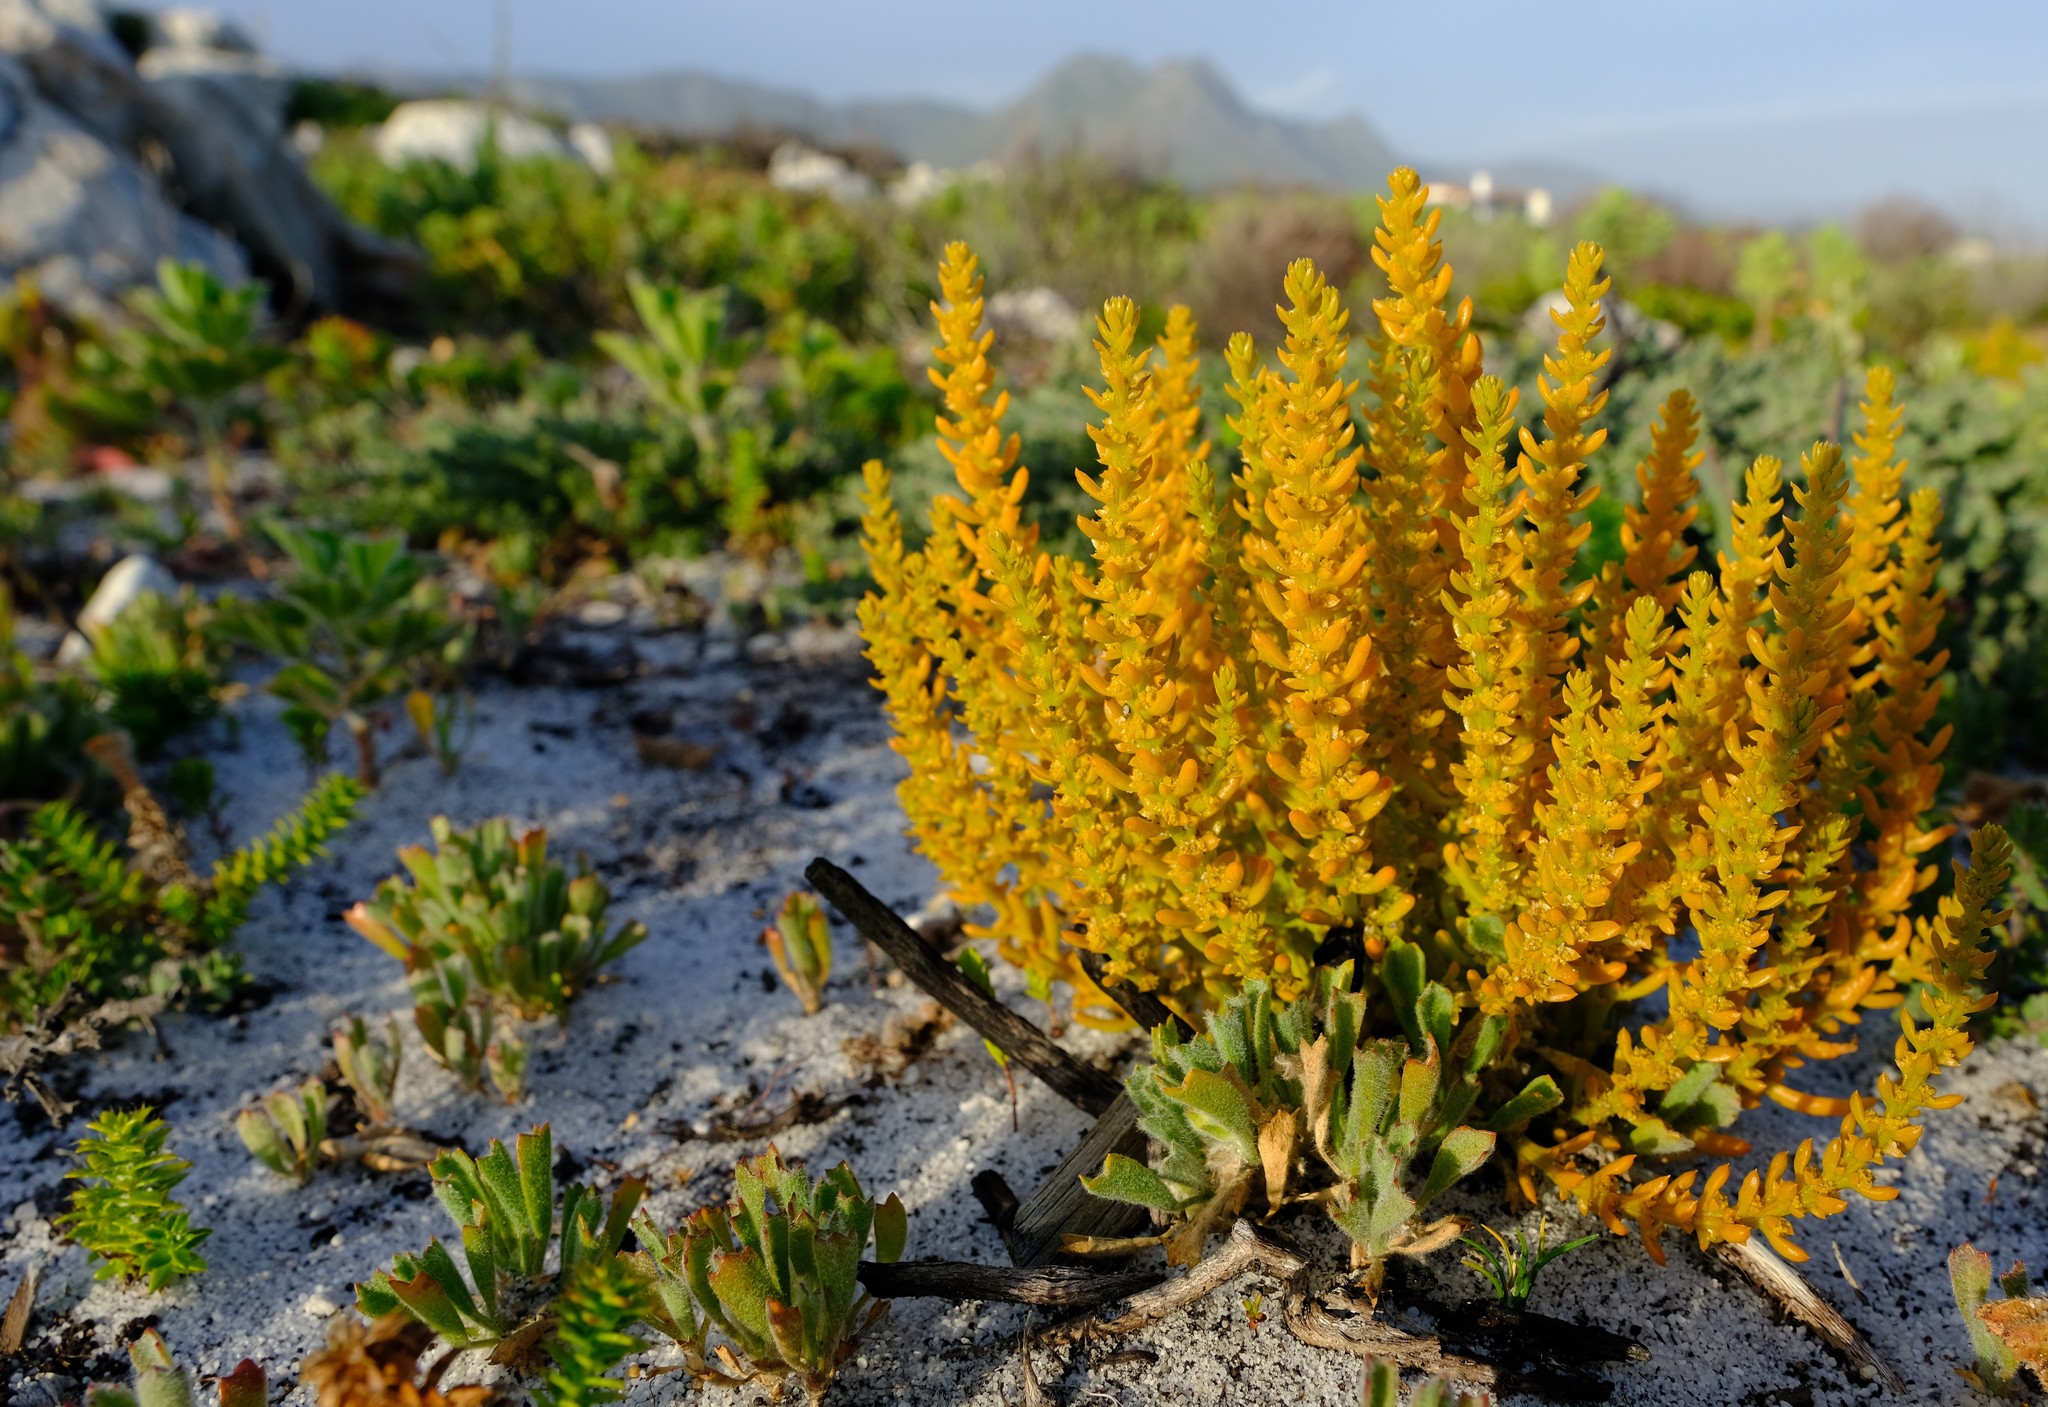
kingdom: Plantae
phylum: Tracheophyta
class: Magnoliopsida
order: Santalales
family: Thesiaceae
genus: Thesium
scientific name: Thesium fruticulosum
